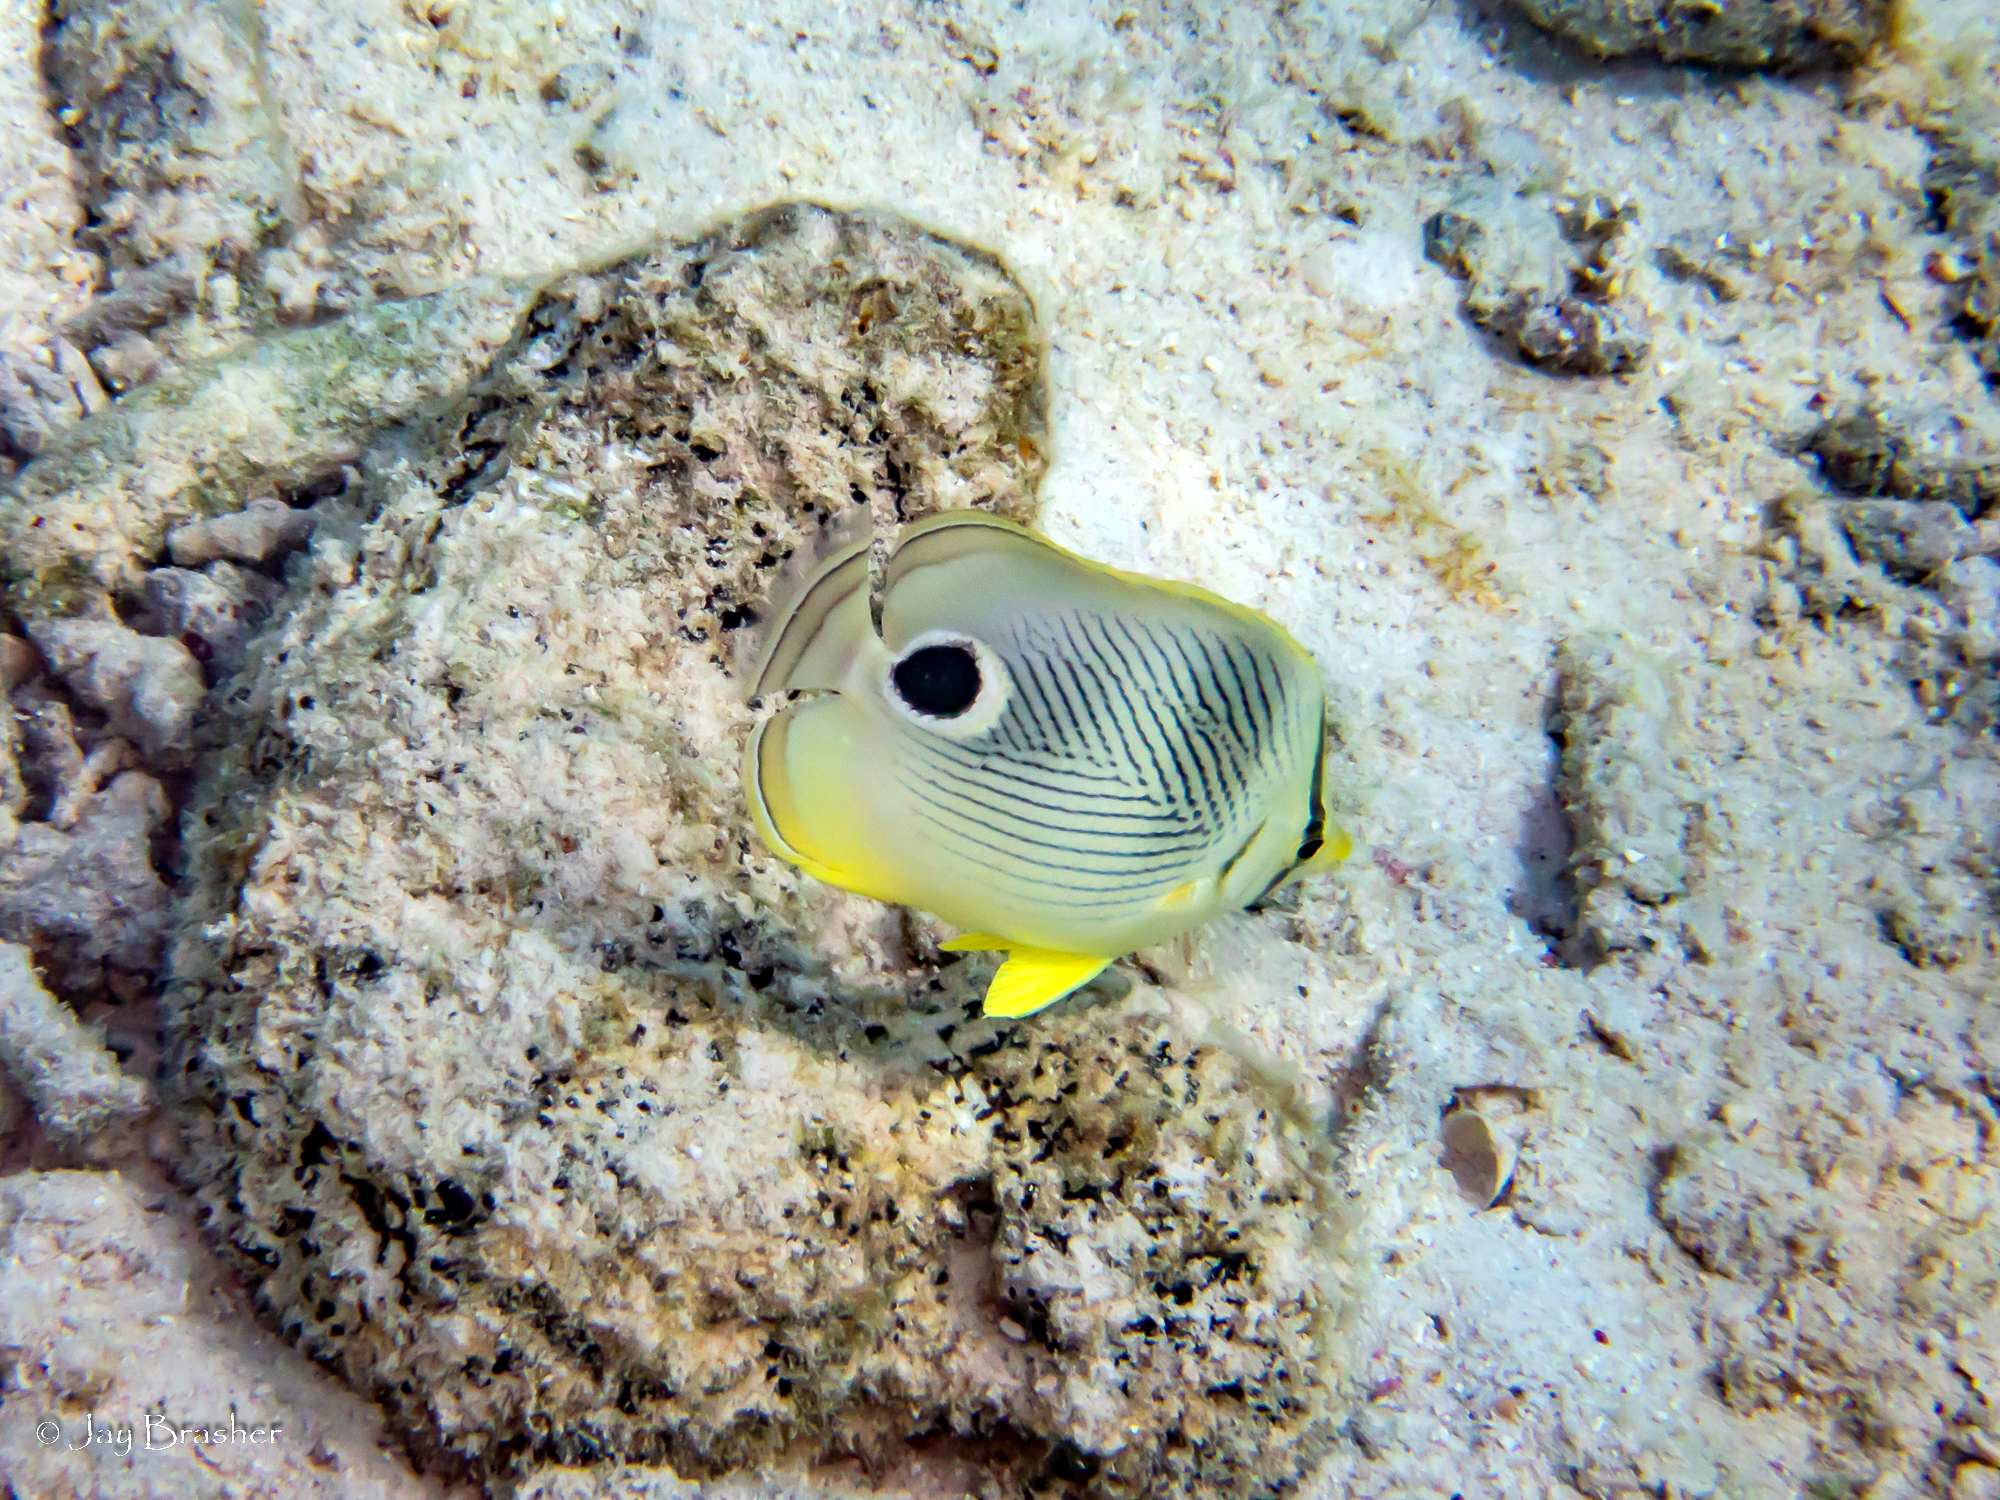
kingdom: Animalia
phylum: Chordata
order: Perciformes
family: Chaetodontidae
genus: Chaetodon
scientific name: Chaetodon capistratus
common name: Kete
